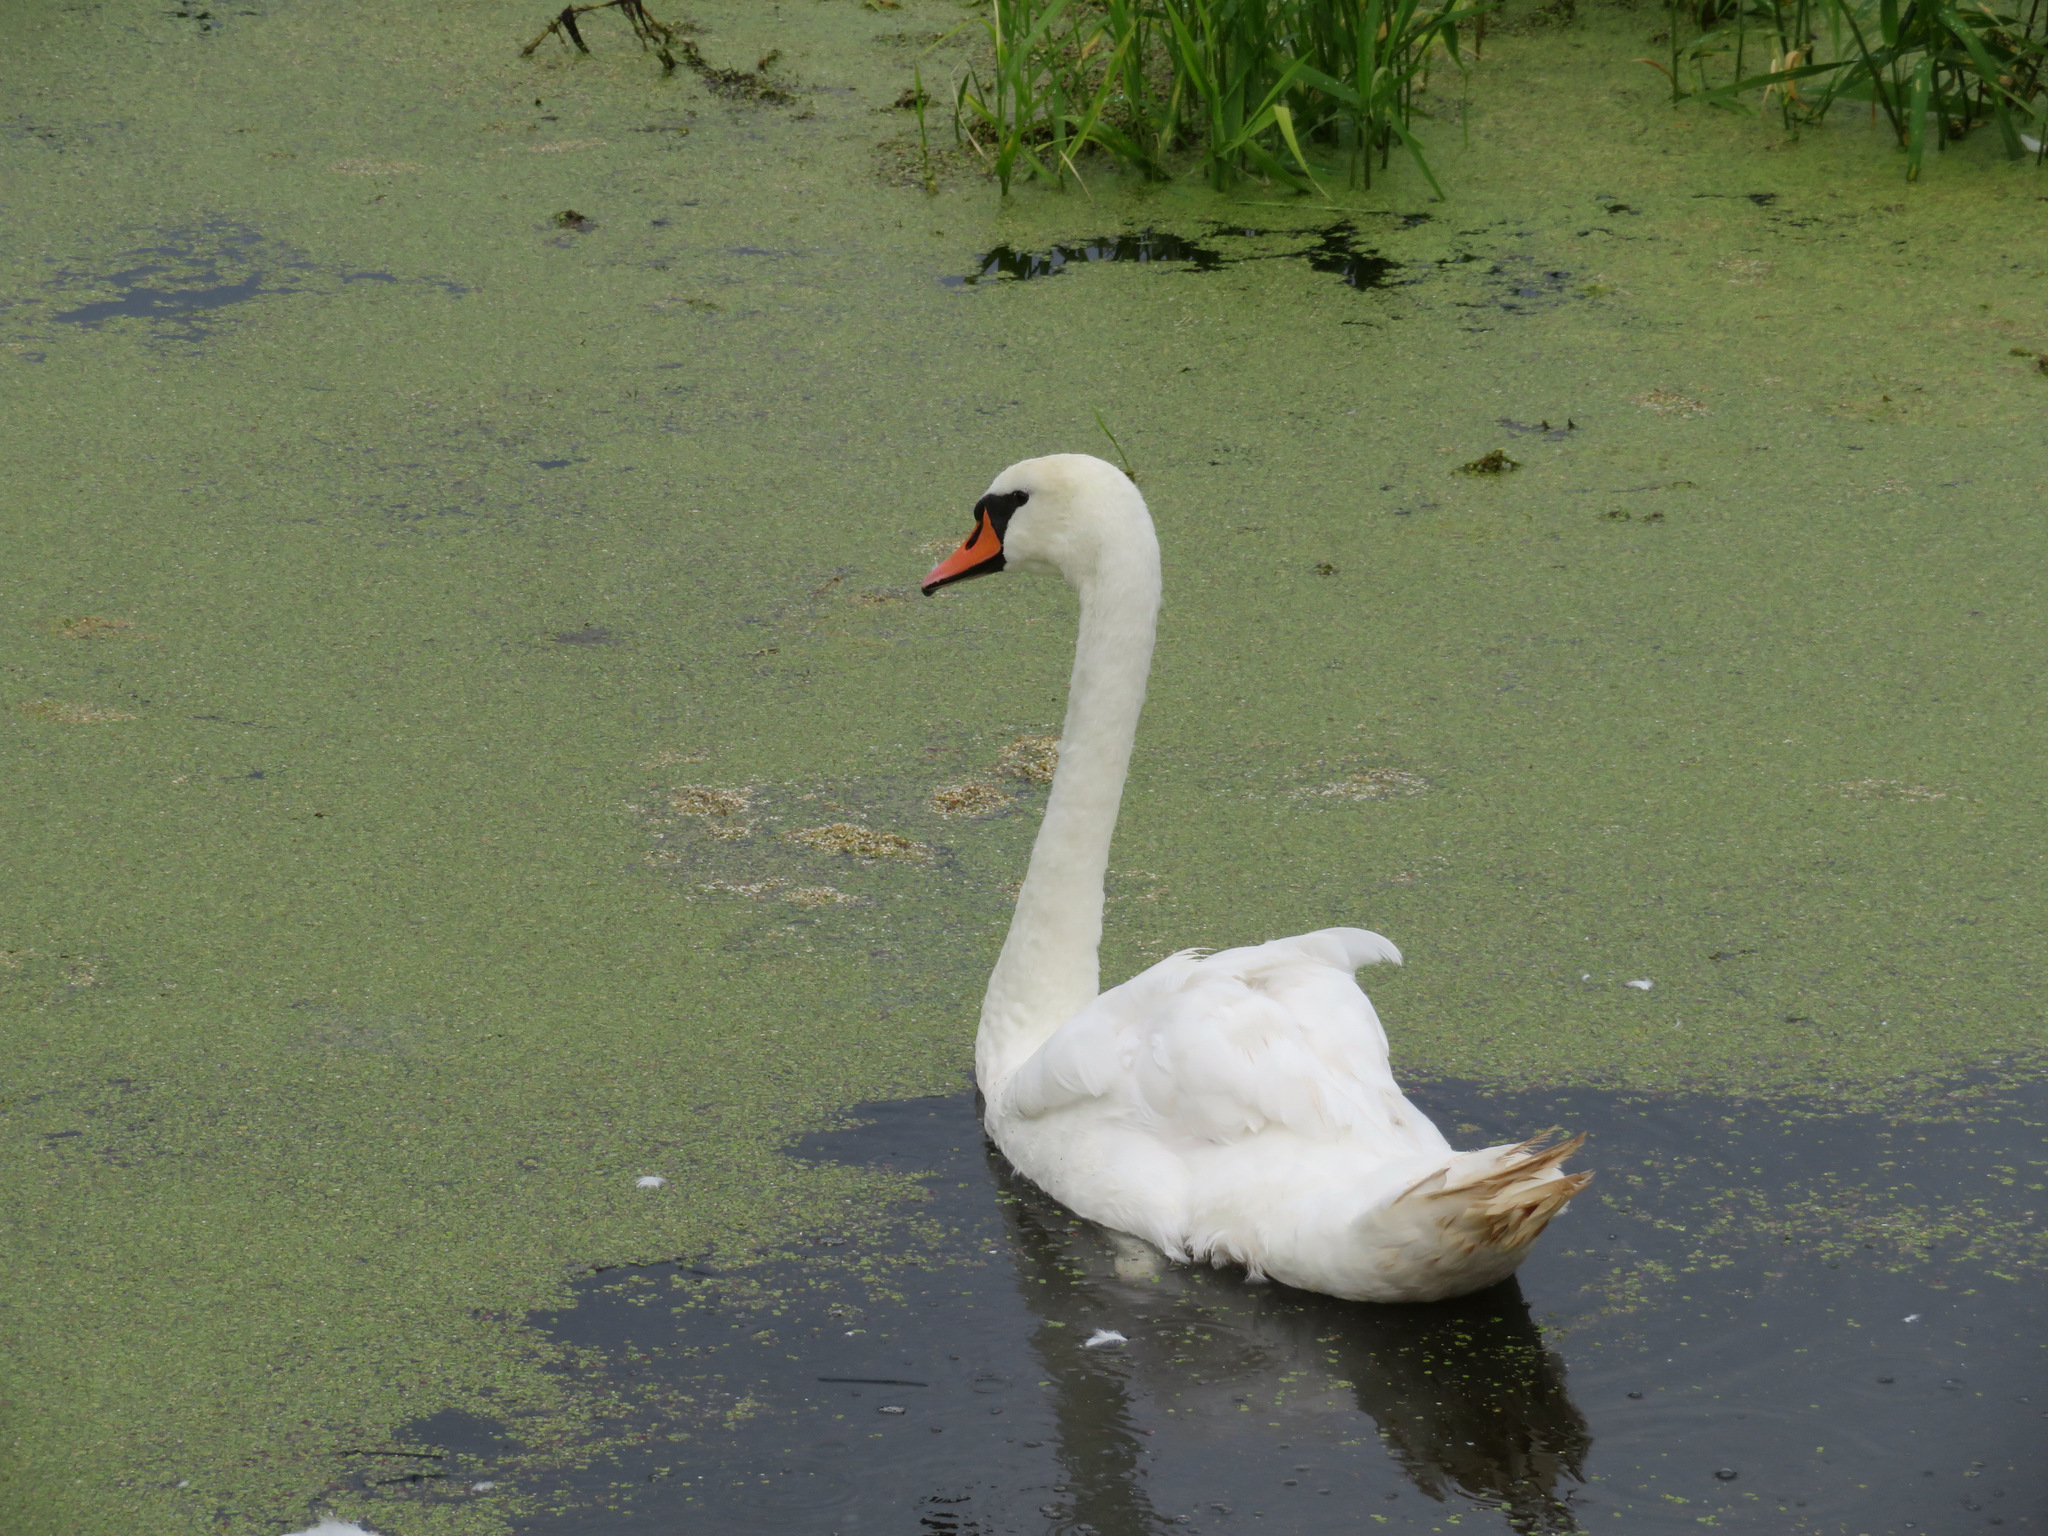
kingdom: Animalia
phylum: Chordata
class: Aves
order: Anseriformes
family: Anatidae
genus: Cygnus
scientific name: Cygnus olor
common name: Mute swan
